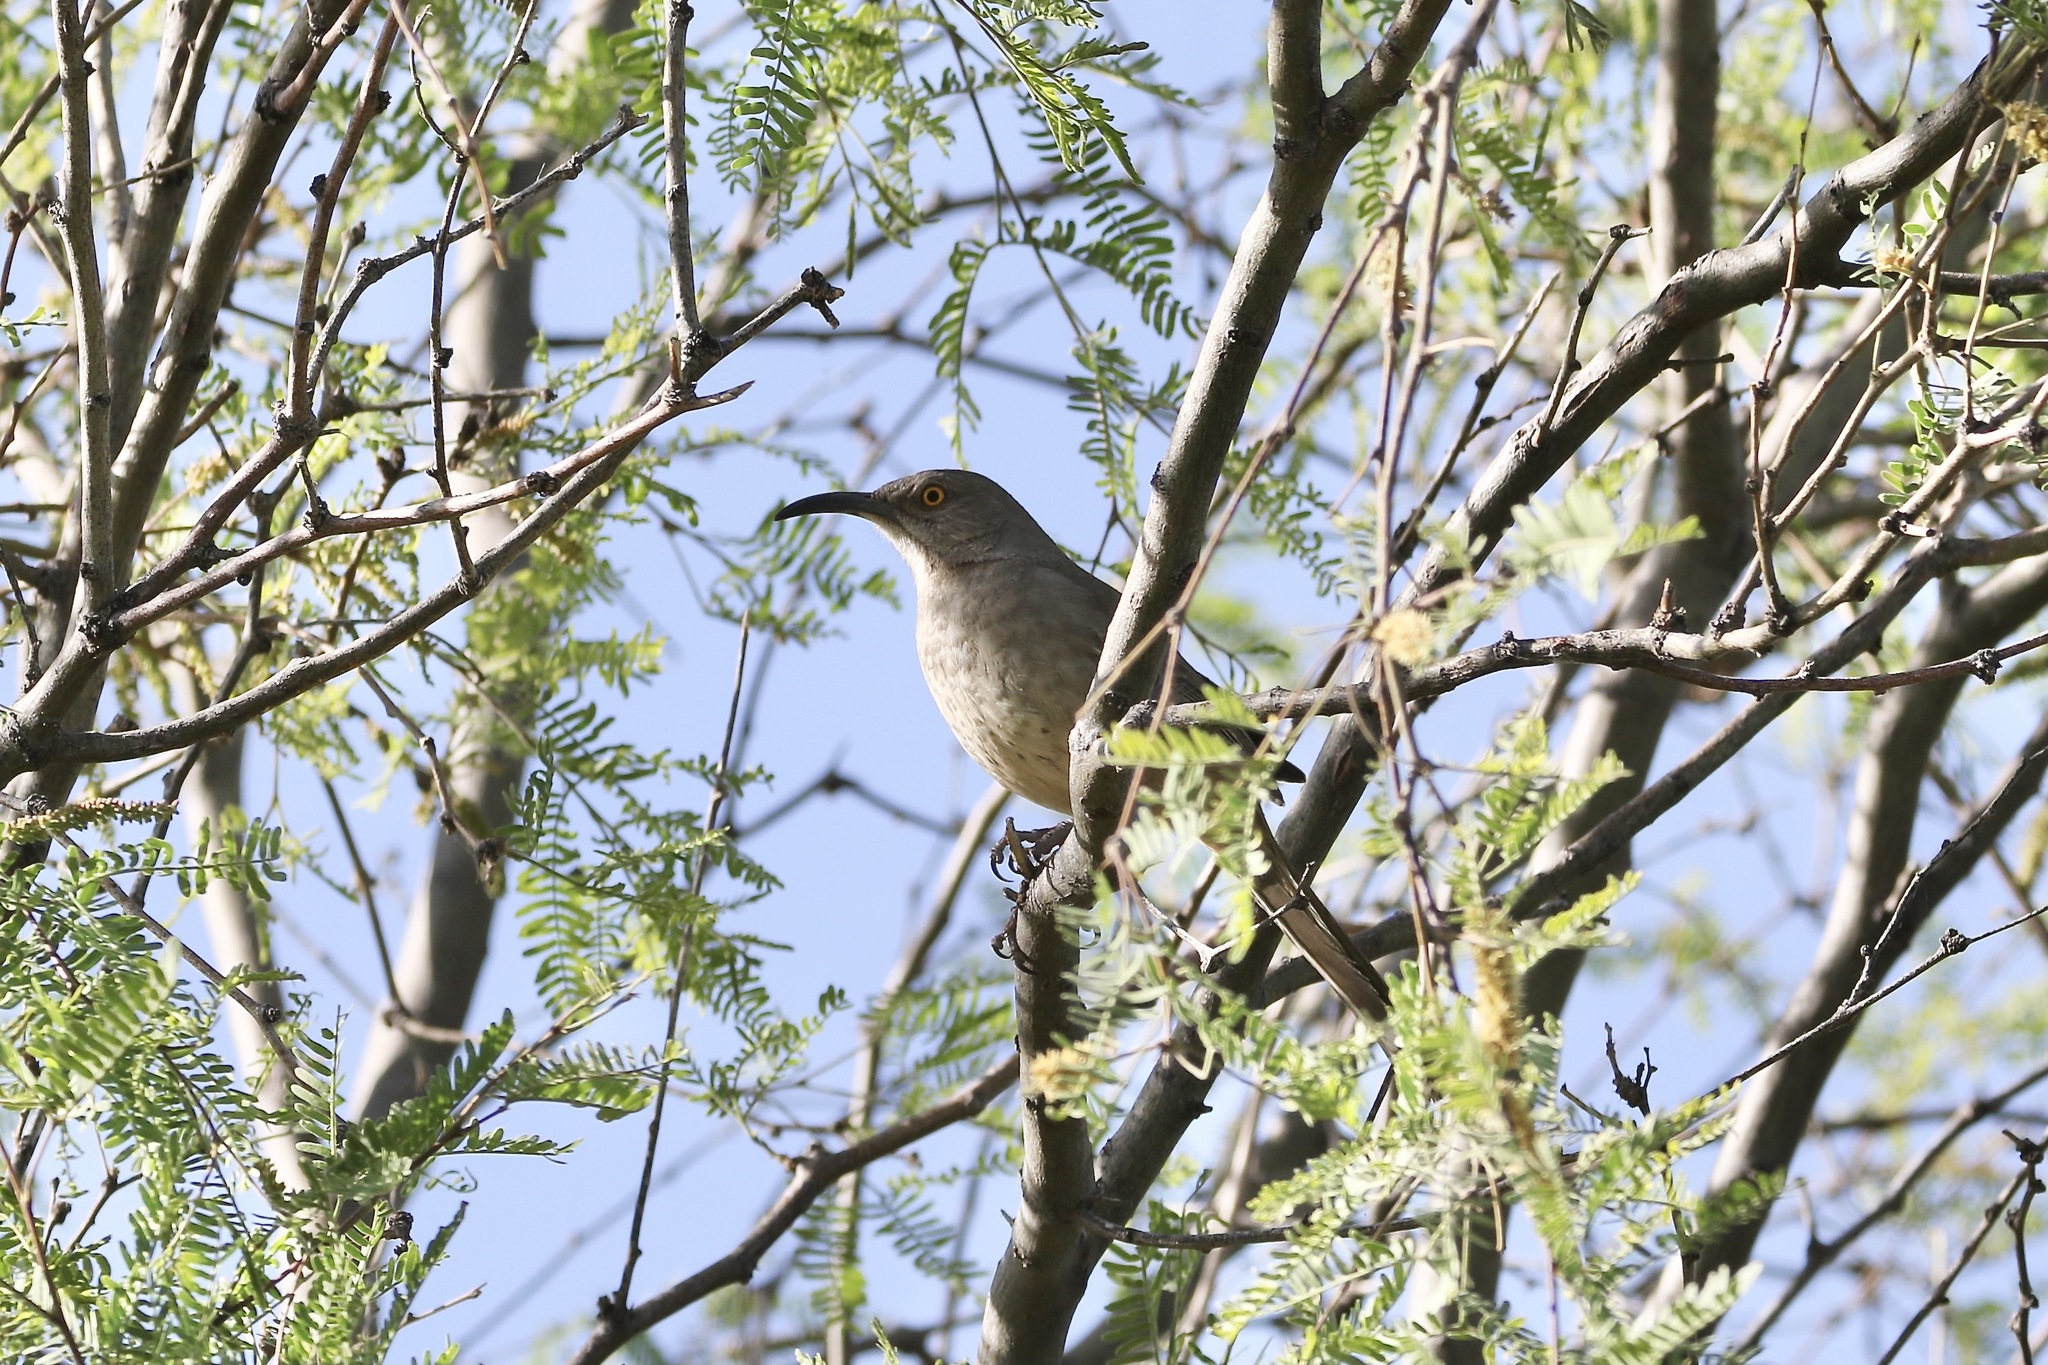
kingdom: Animalia
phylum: Chordata
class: Aves
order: Passeriformes
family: Mimidae
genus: Toxostoma
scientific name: Toxostoma curvirostre
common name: Curve-billed thrasher
